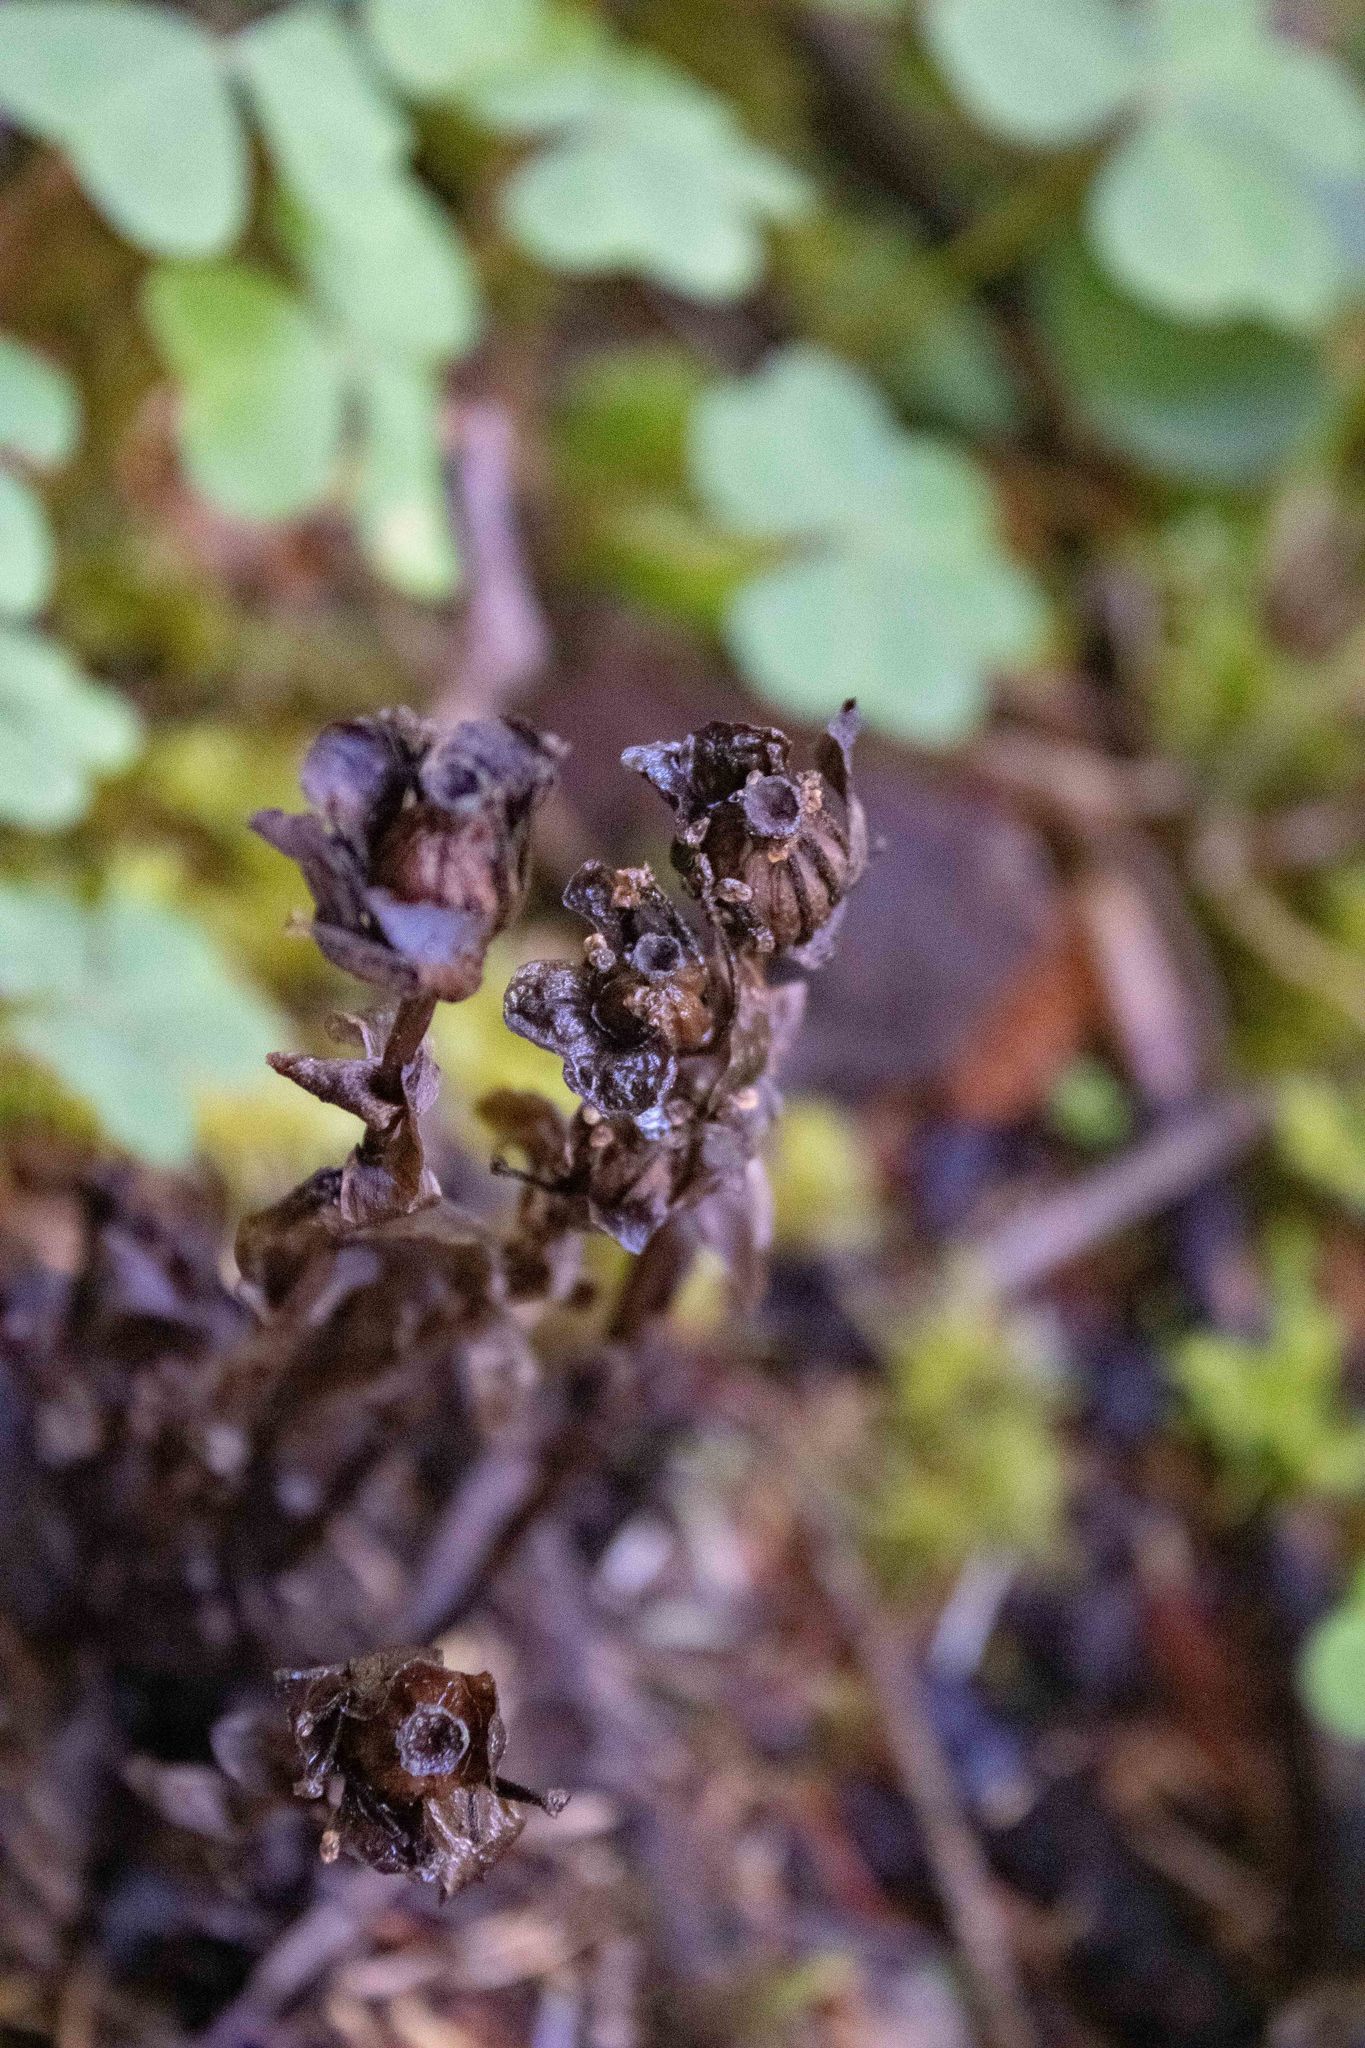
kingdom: Plantae
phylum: Tracheophyta
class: Magnoliopsida
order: Ericales
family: Ericaceae
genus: Monotropa
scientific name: Monotropa uniflora
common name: Convulsion root
